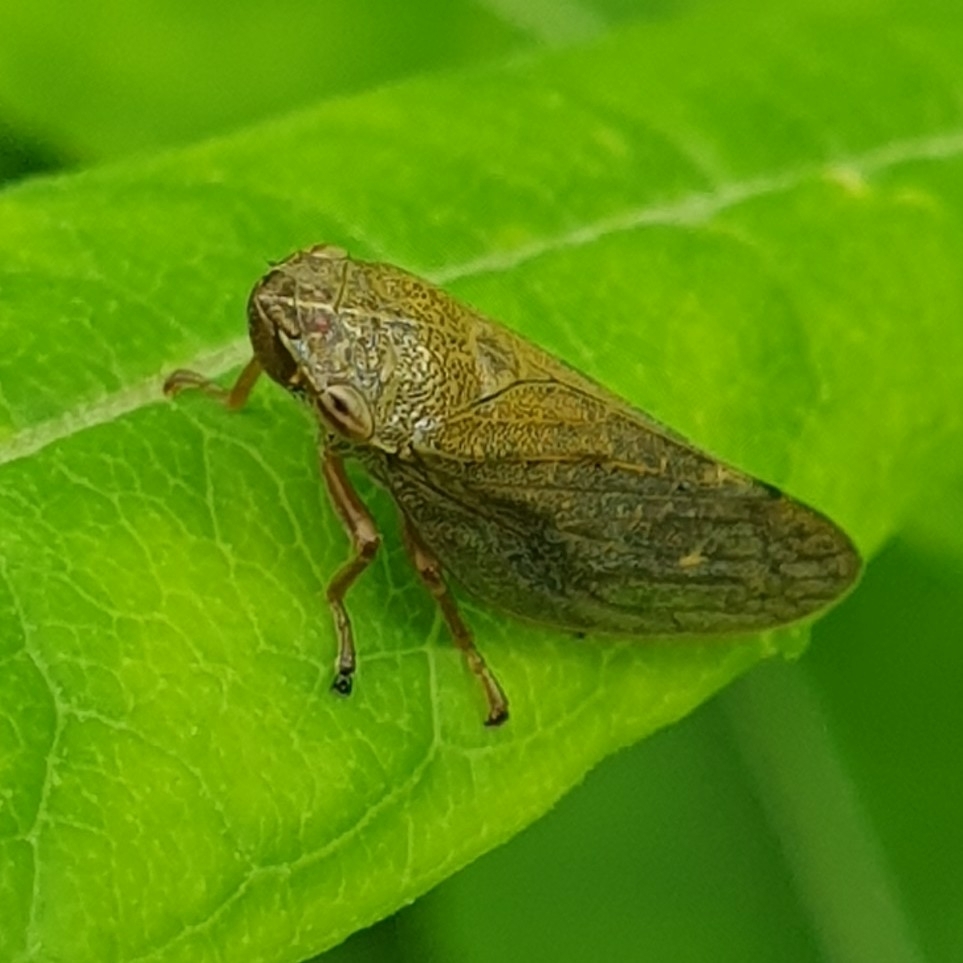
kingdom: Animalia
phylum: Arthropoda
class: Insecta
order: Hemiptera
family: Aphrophoridae
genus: Aphrophora
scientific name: Aphrophora salicina
